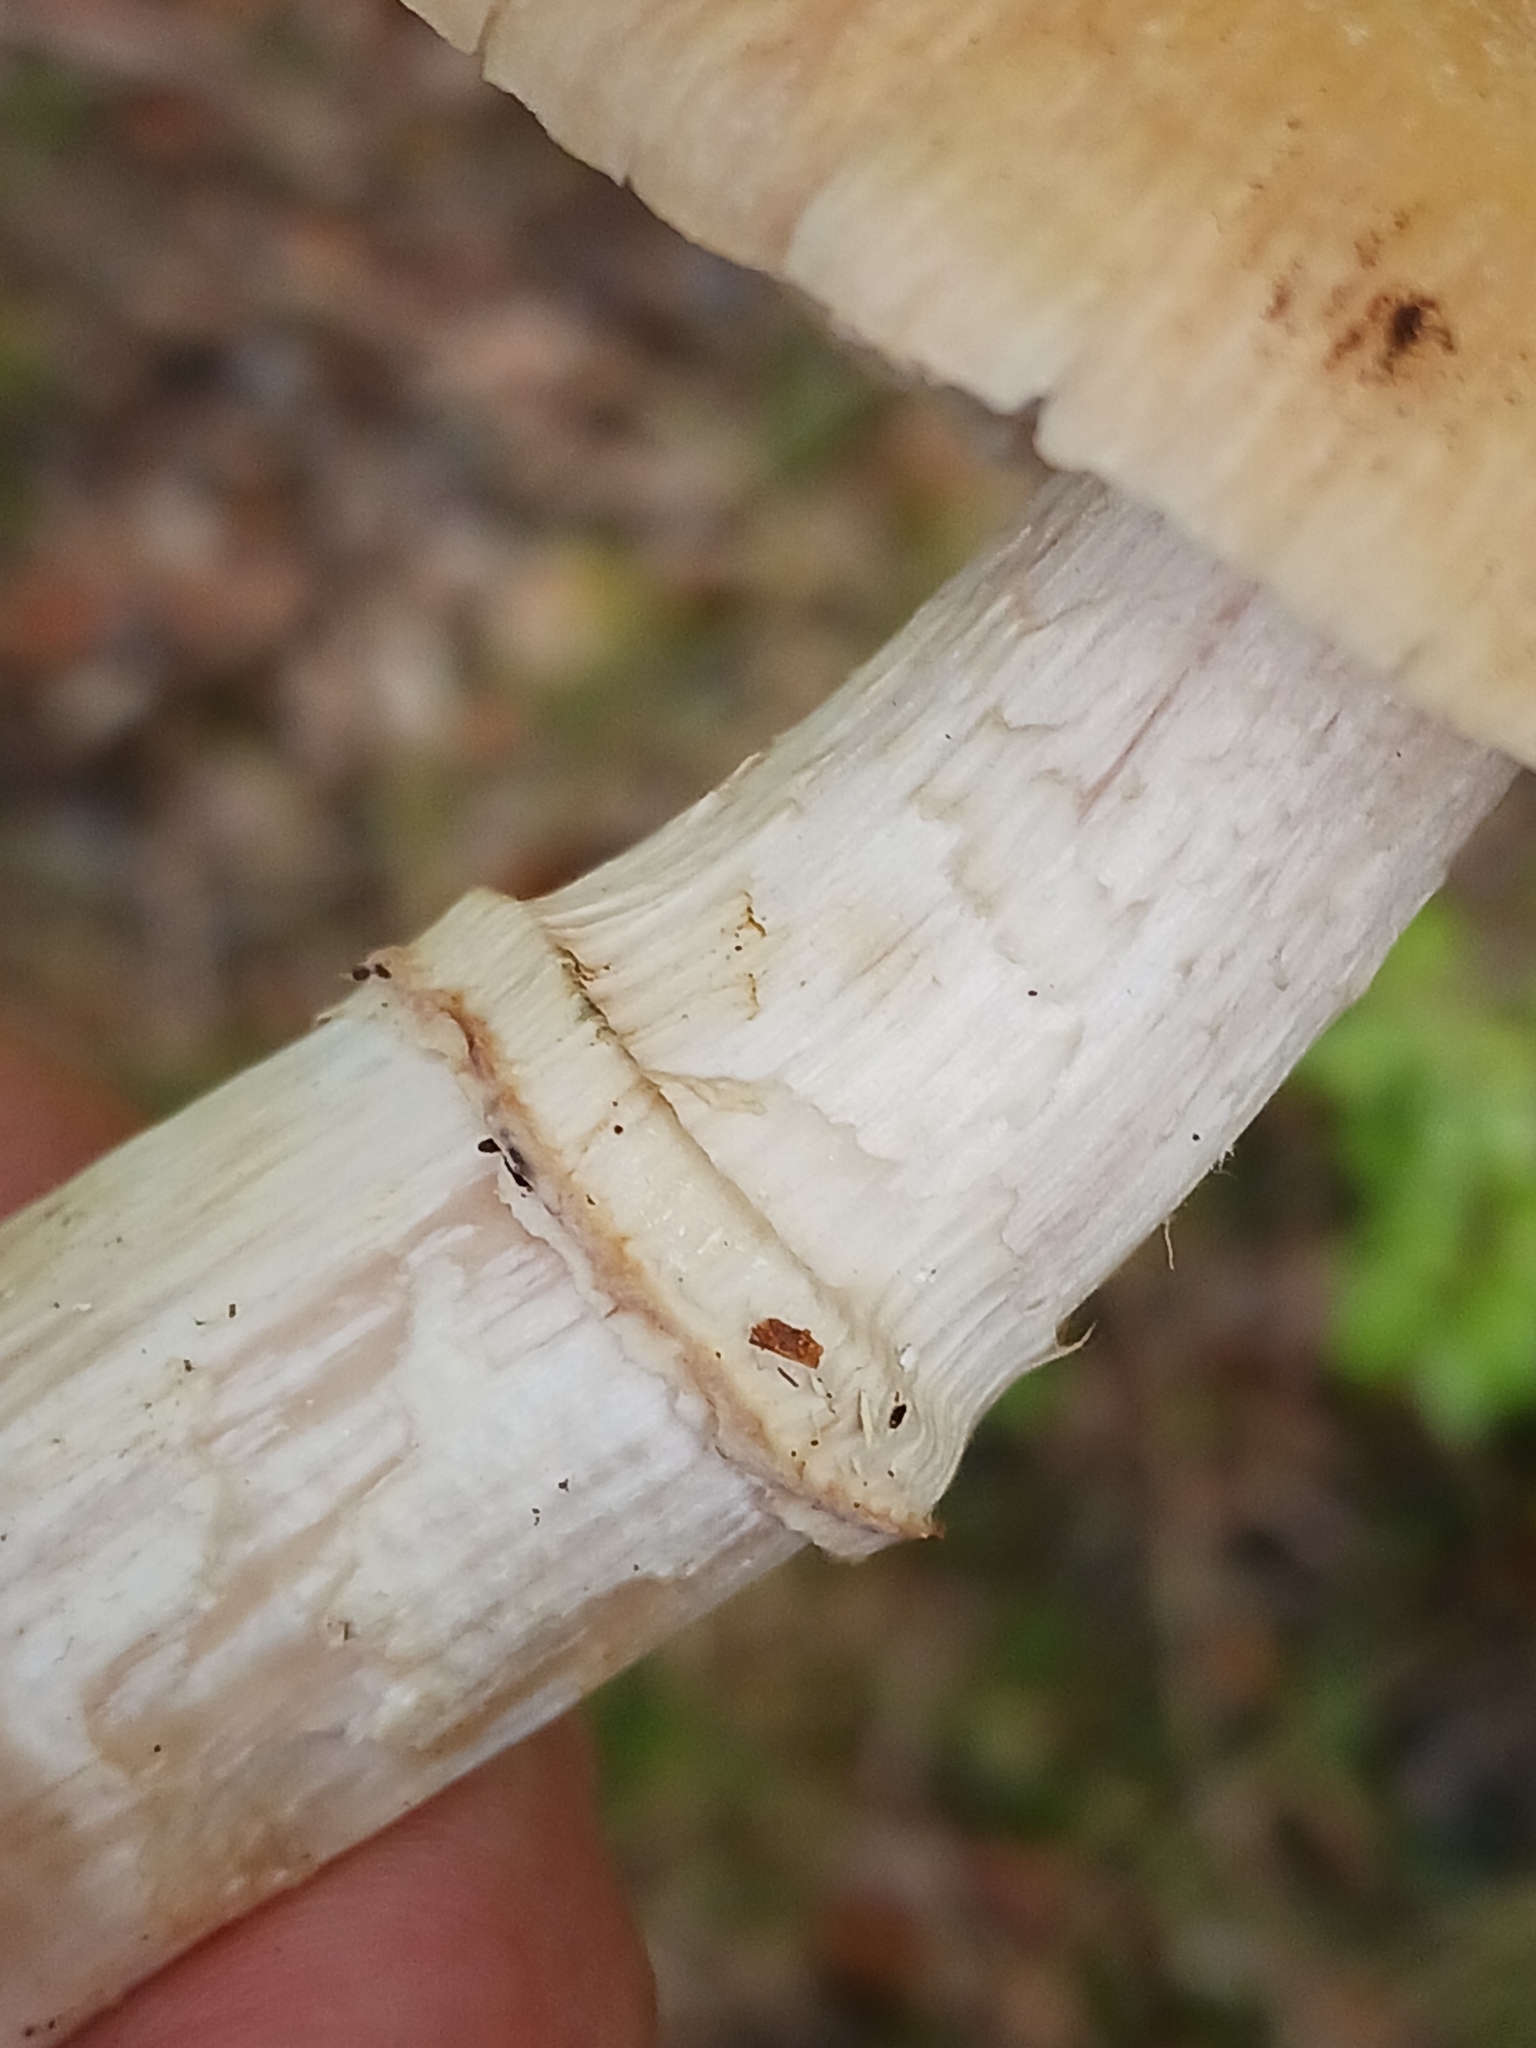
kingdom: Fungi
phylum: Basidiomycota
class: Agaricomycetes
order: Agaricales
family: Cortinariaceae
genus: Cortinarius
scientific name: Cortinarius caperatus
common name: The gypsy
